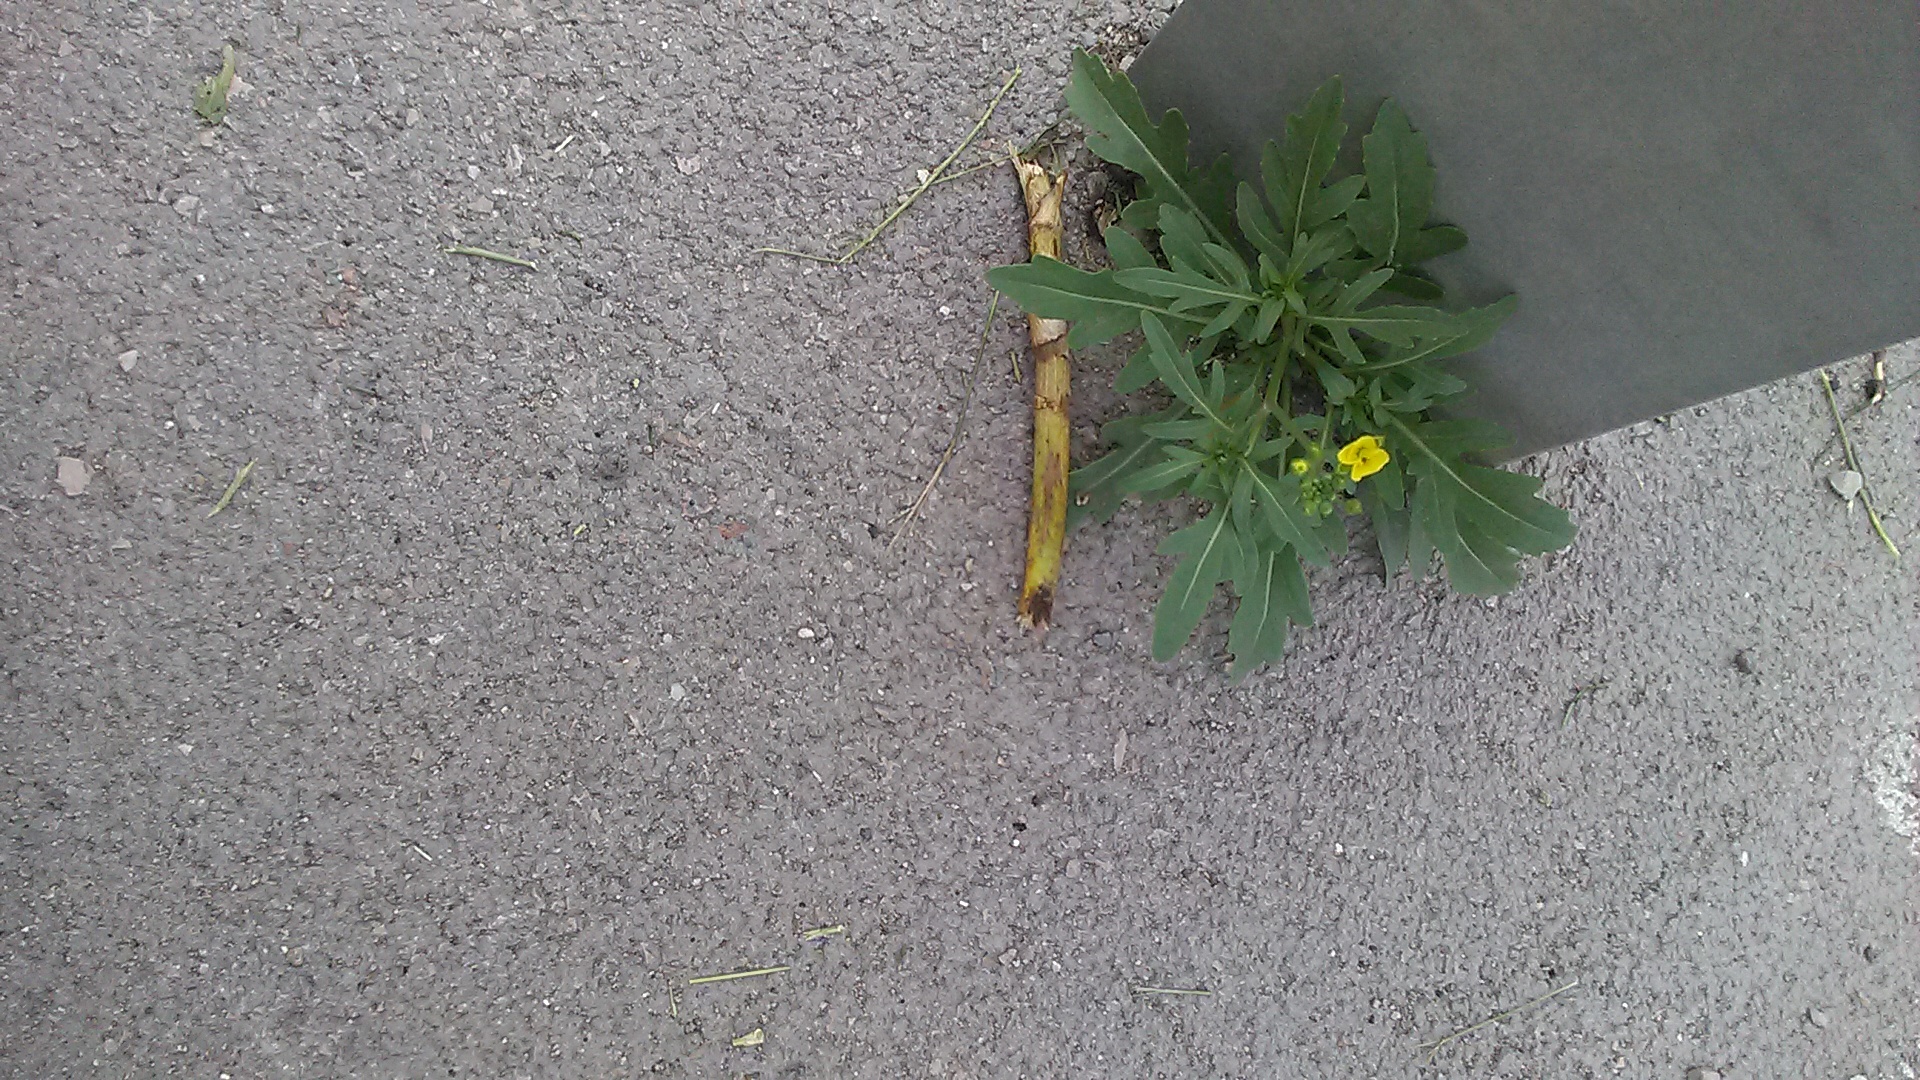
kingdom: Plantae
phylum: Tracheophyta
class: Magnoliopsida
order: Brassicales
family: Brassicaceae
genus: Diplotaxis
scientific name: Diplotaxis tenuifolia
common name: Perennial wall-rocket
